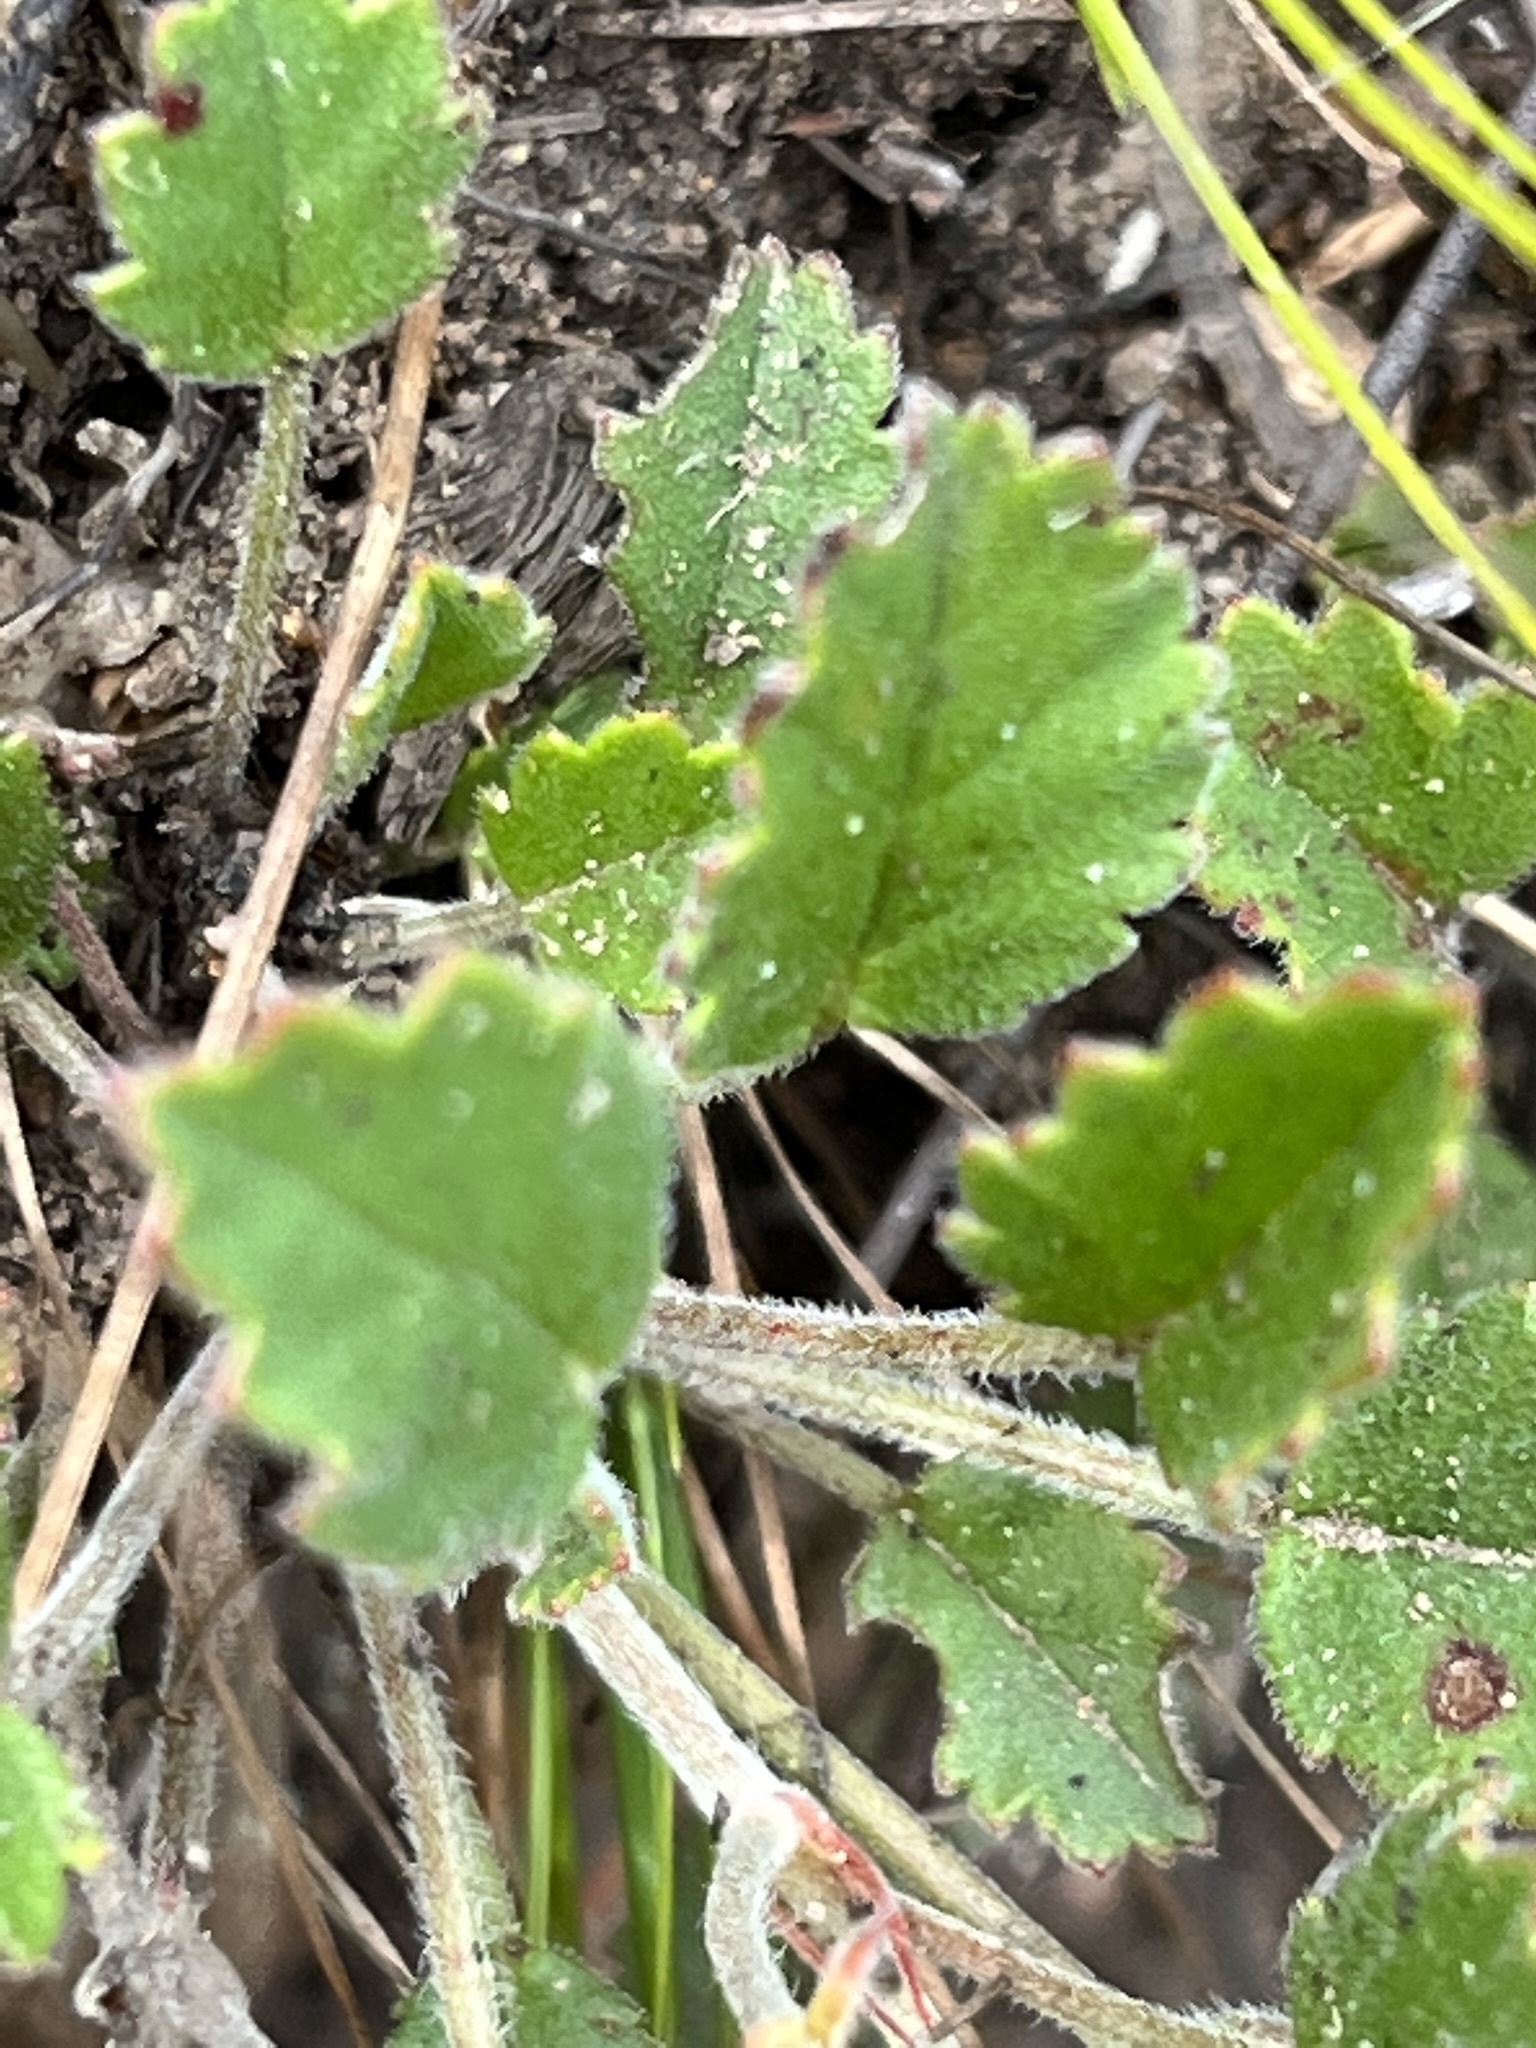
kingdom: Plantae
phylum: Tracheophyta
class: Magnoliopsida
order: Geraniales
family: Geraniaceae
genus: Pelargonium
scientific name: Pelargonium capillare
